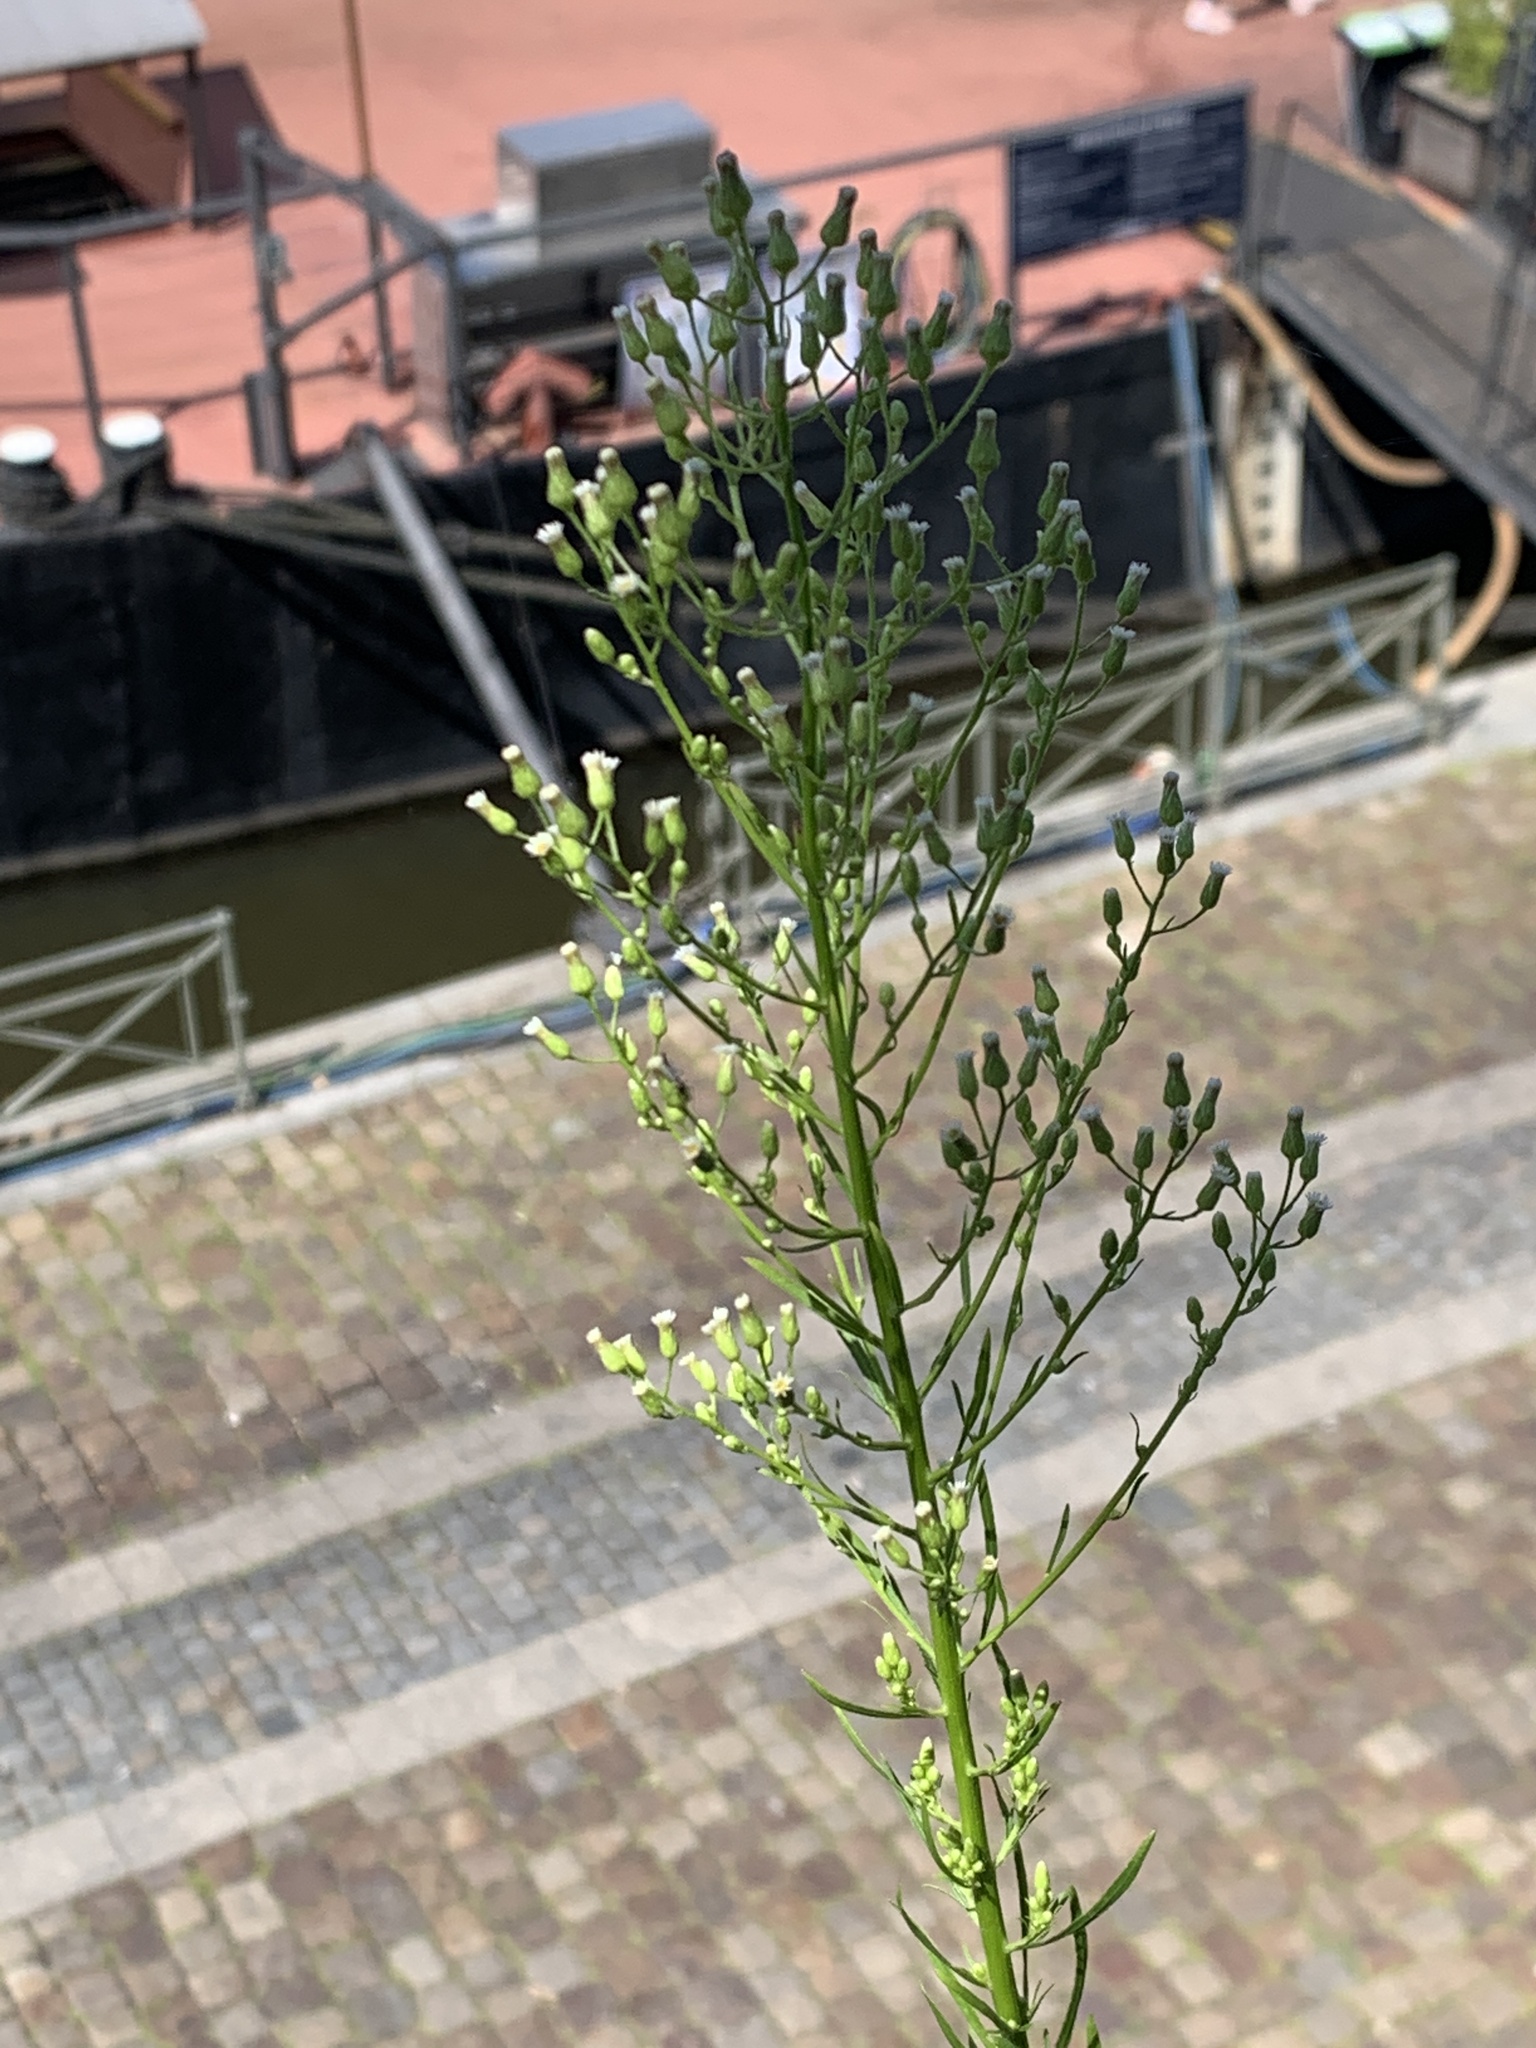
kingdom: Plantae
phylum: Tracheophyta
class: Magnoliopsida
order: Asterales
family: Asteraceae
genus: Erigeron
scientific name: Erigeron canadensis
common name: Canadian fleabane
